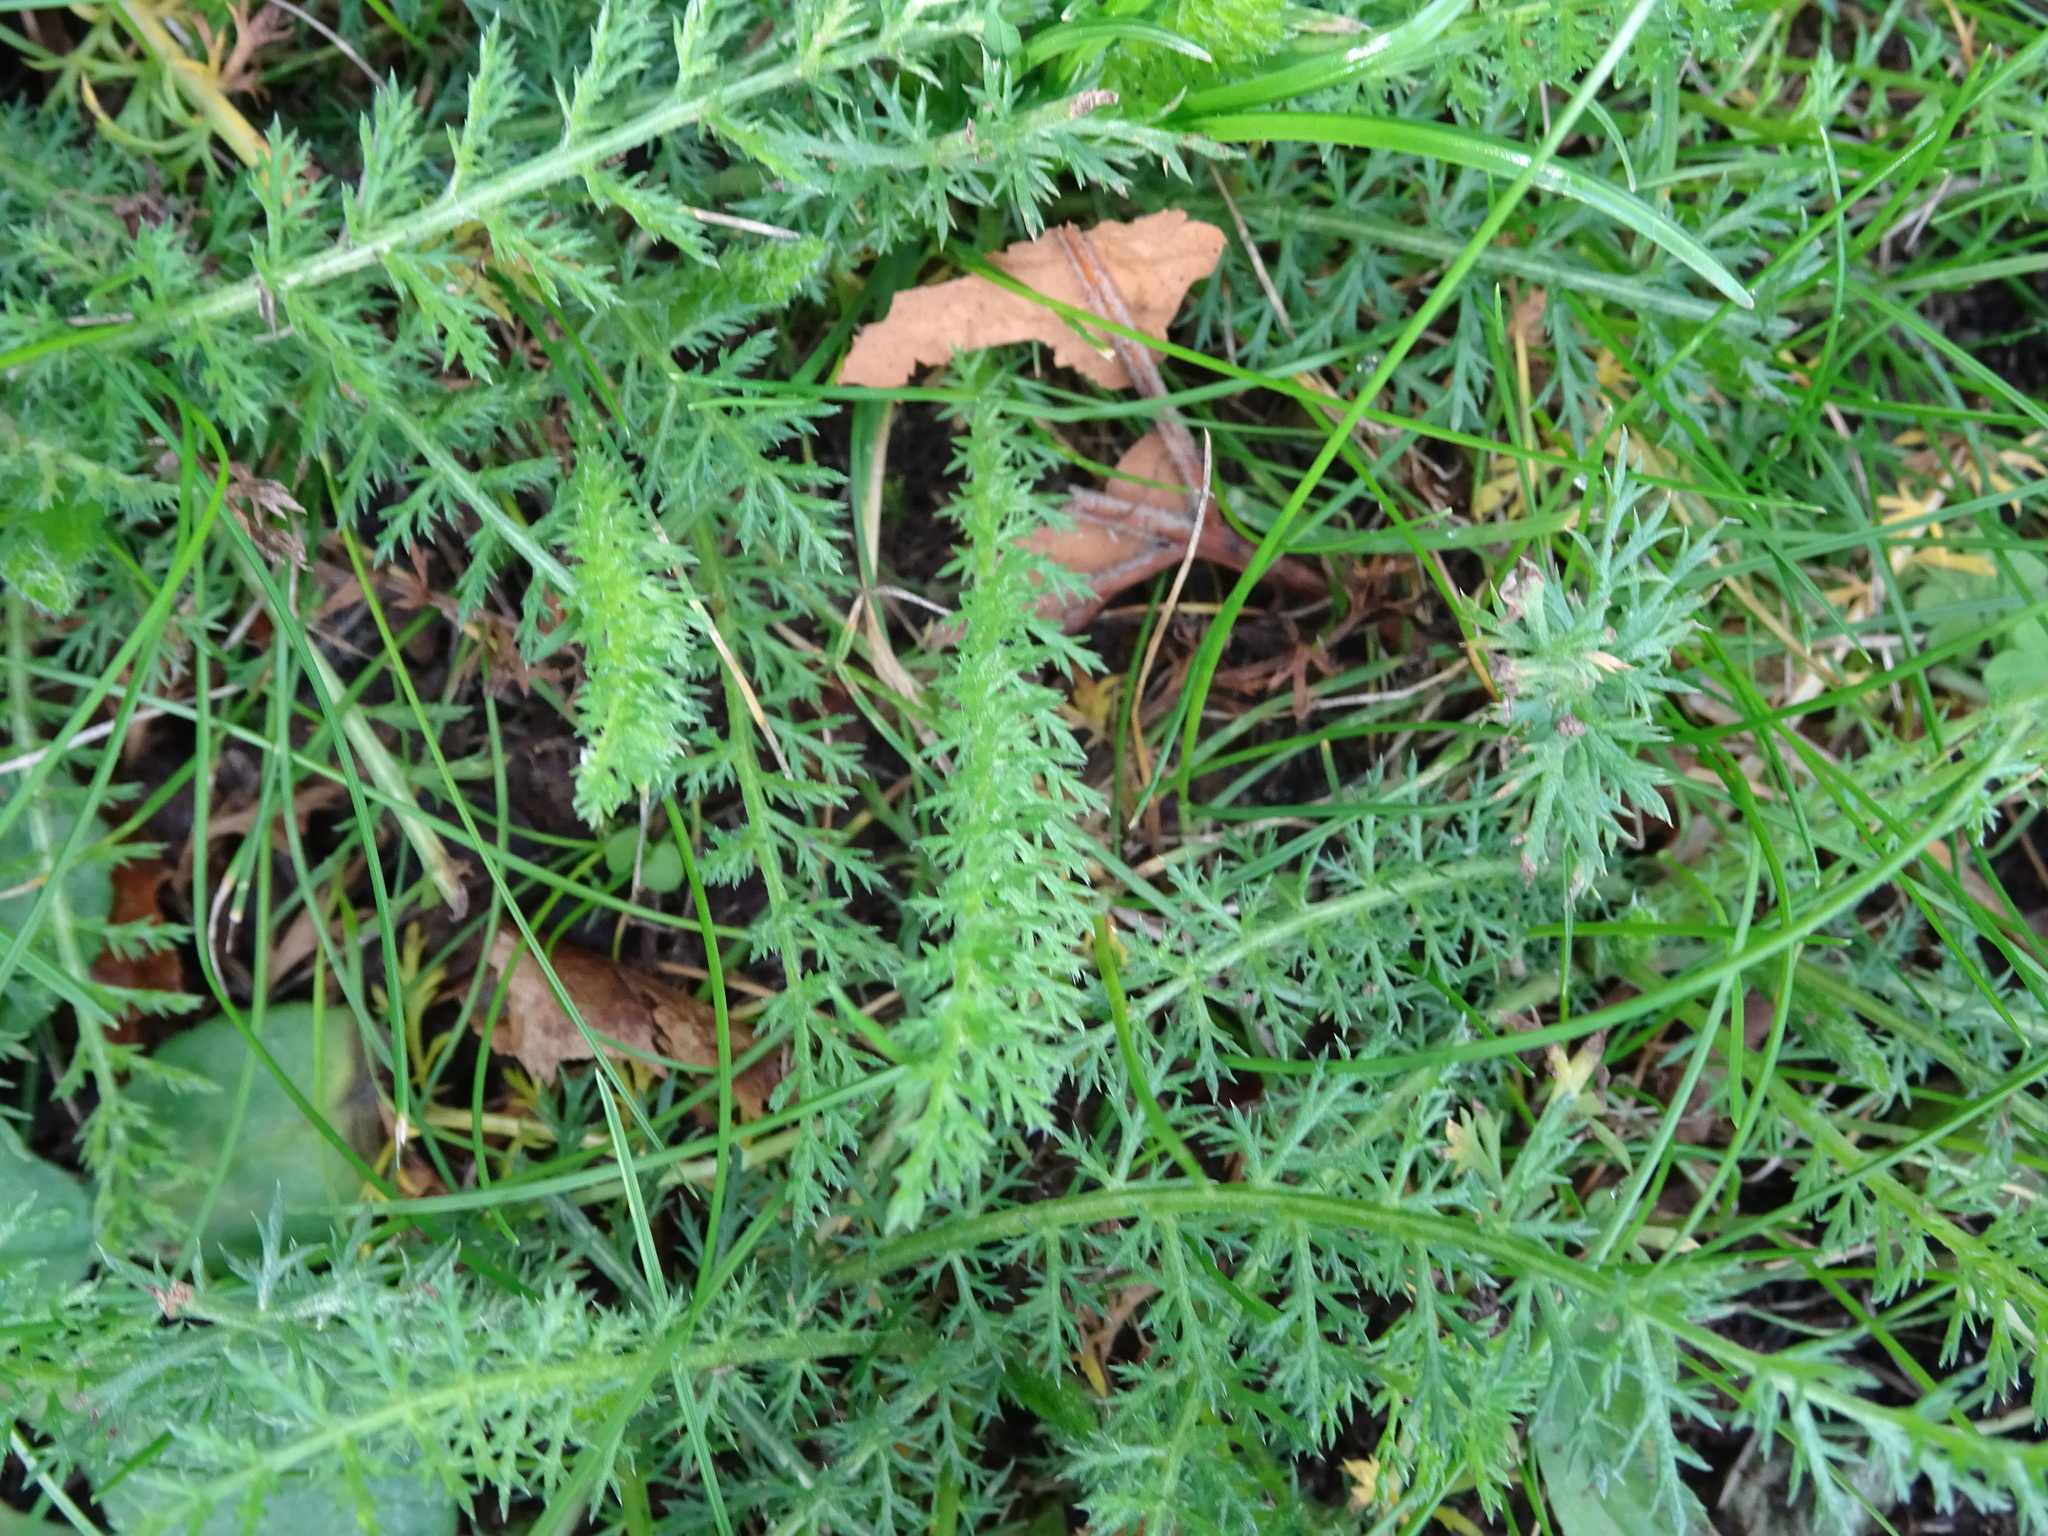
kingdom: Plantae
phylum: Tracheophyta
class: Magnoliopsida
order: Asterales
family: Asteraceae
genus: Achillea
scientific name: Achillea millefolium
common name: Yarrow
